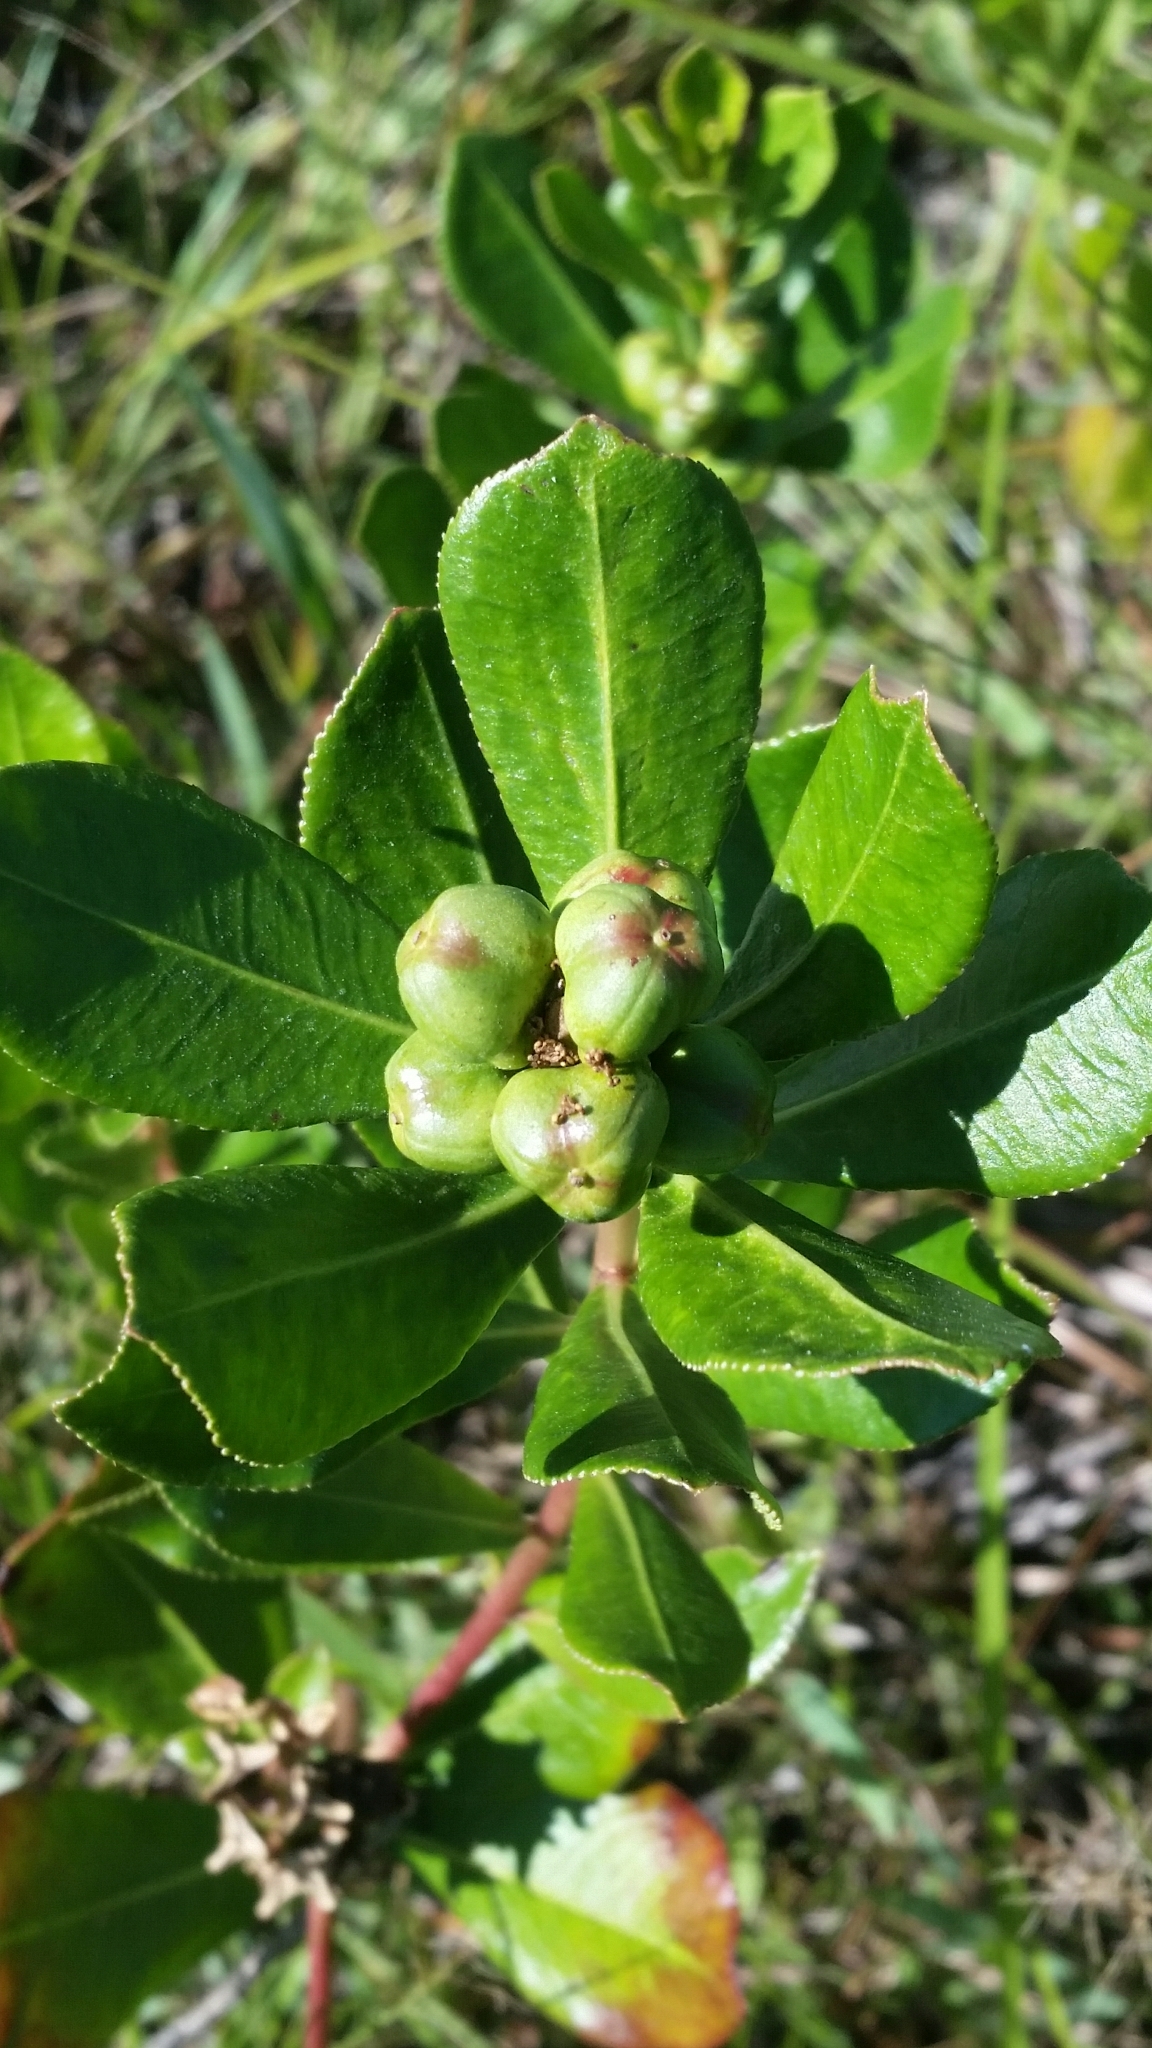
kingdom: Plantae
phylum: Tracheophyta
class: Magnoliopsida
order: Malpighiales
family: Euphorbiaceae
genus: Stillingia
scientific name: Stillingia sylvatica
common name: Queen's-delight
